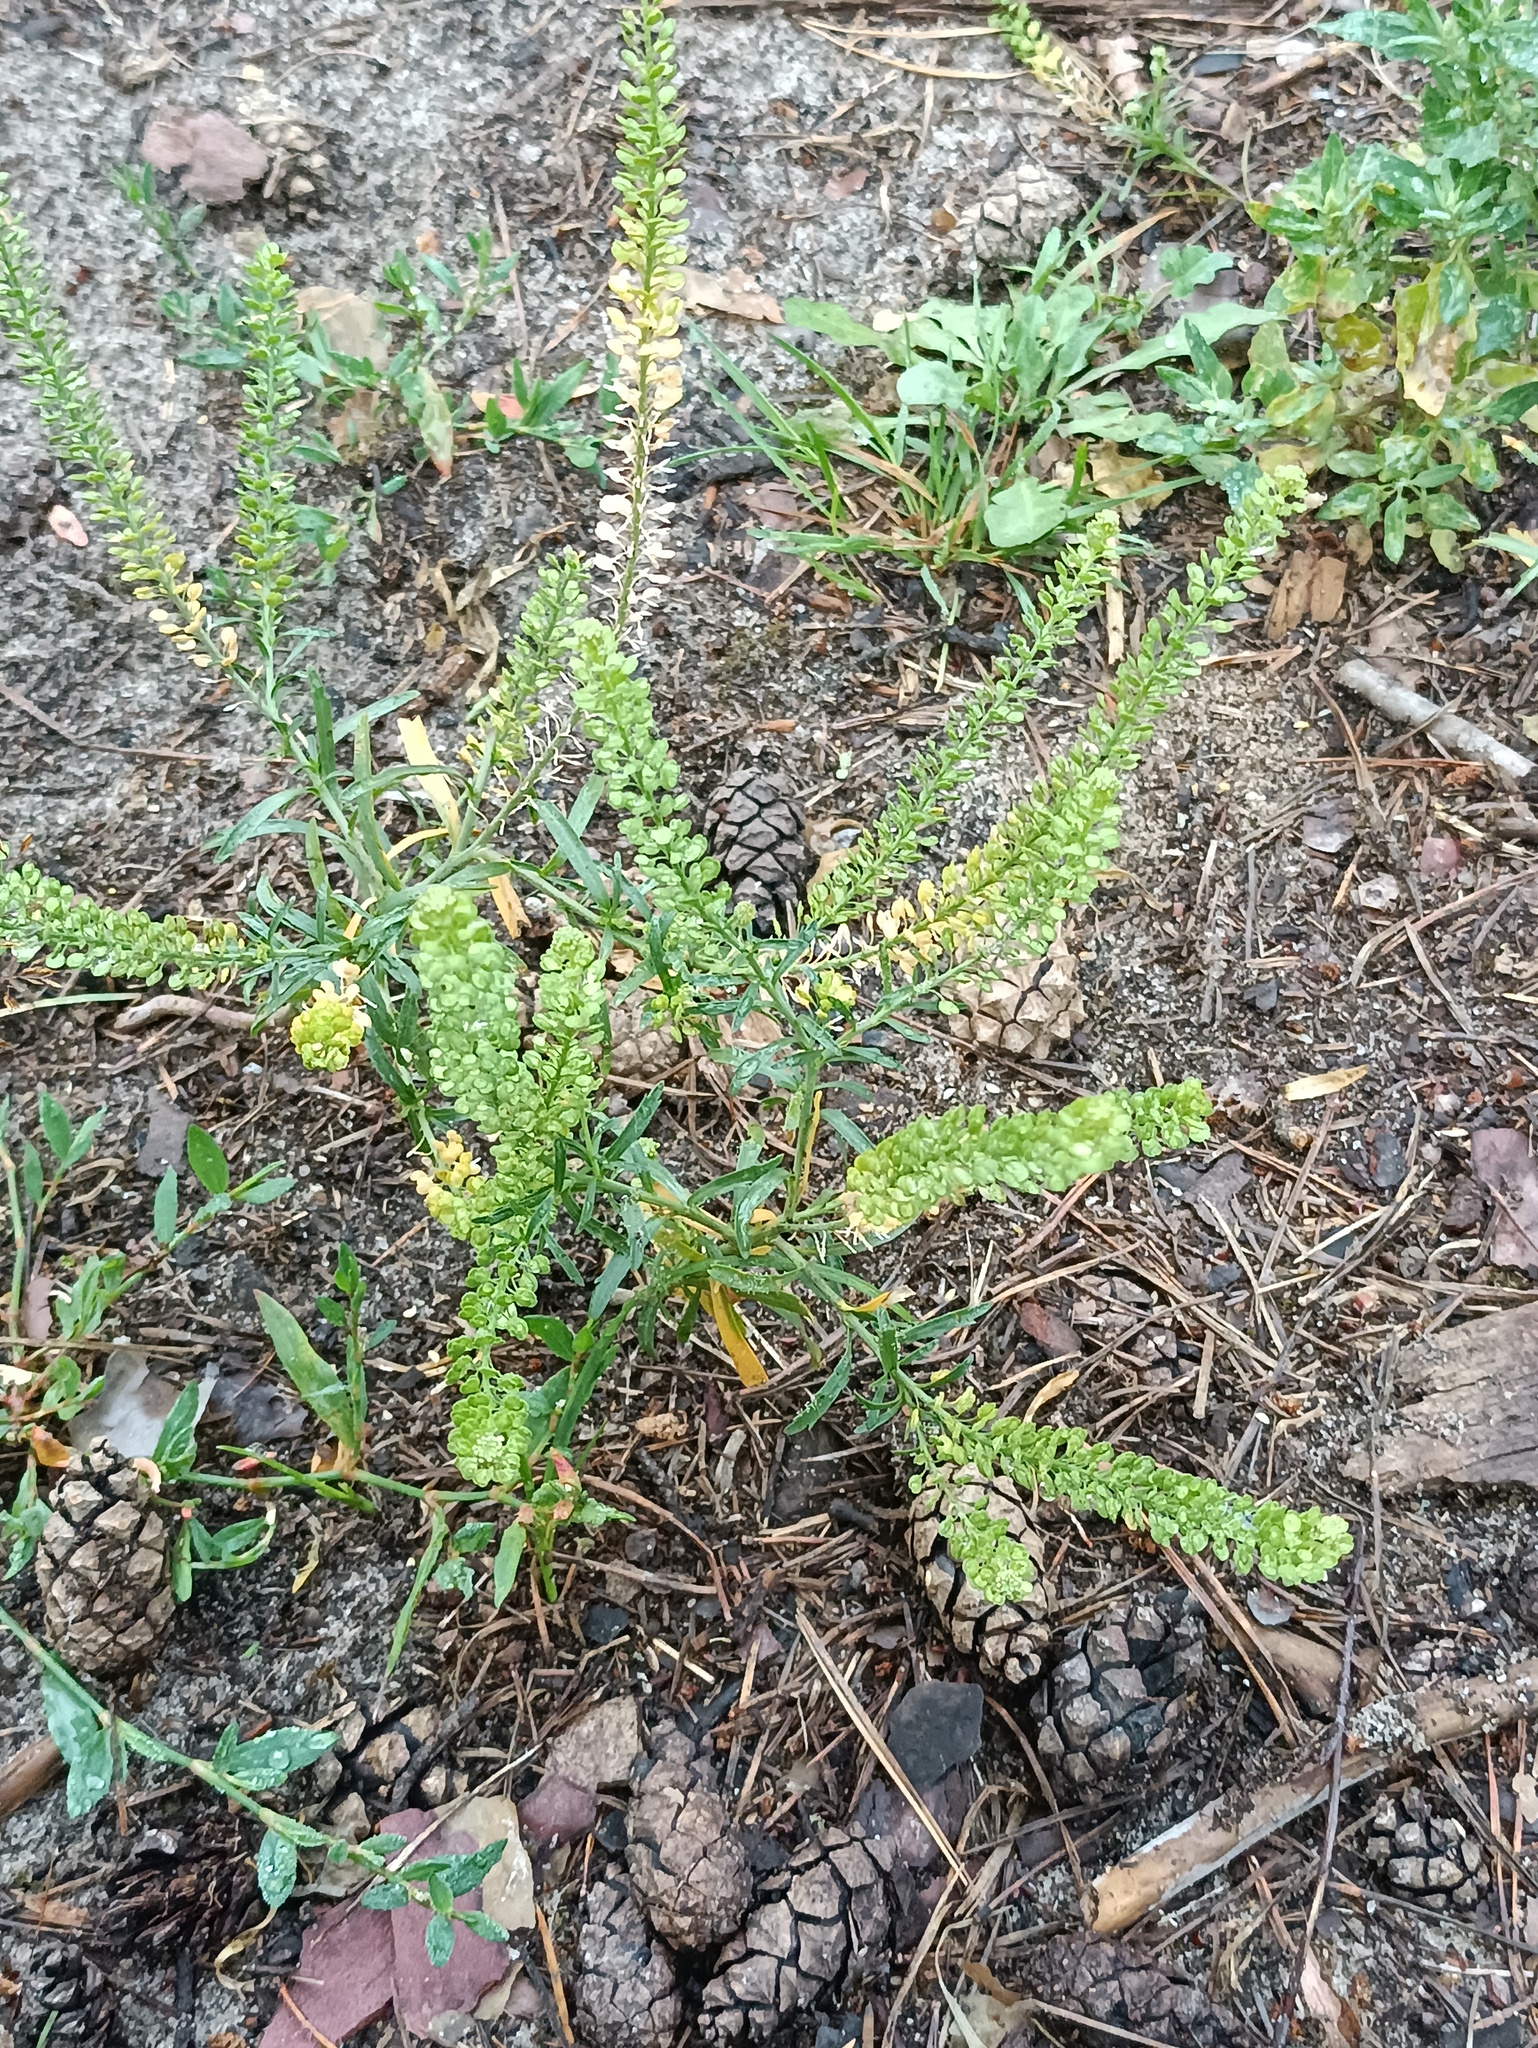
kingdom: Plantae
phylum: Tracheophyta
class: Magnoliopsida
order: Brassicales
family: Brassicaceae
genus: Lepidium
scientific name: Lepidium densiflorum
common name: Miner's pepperwort
